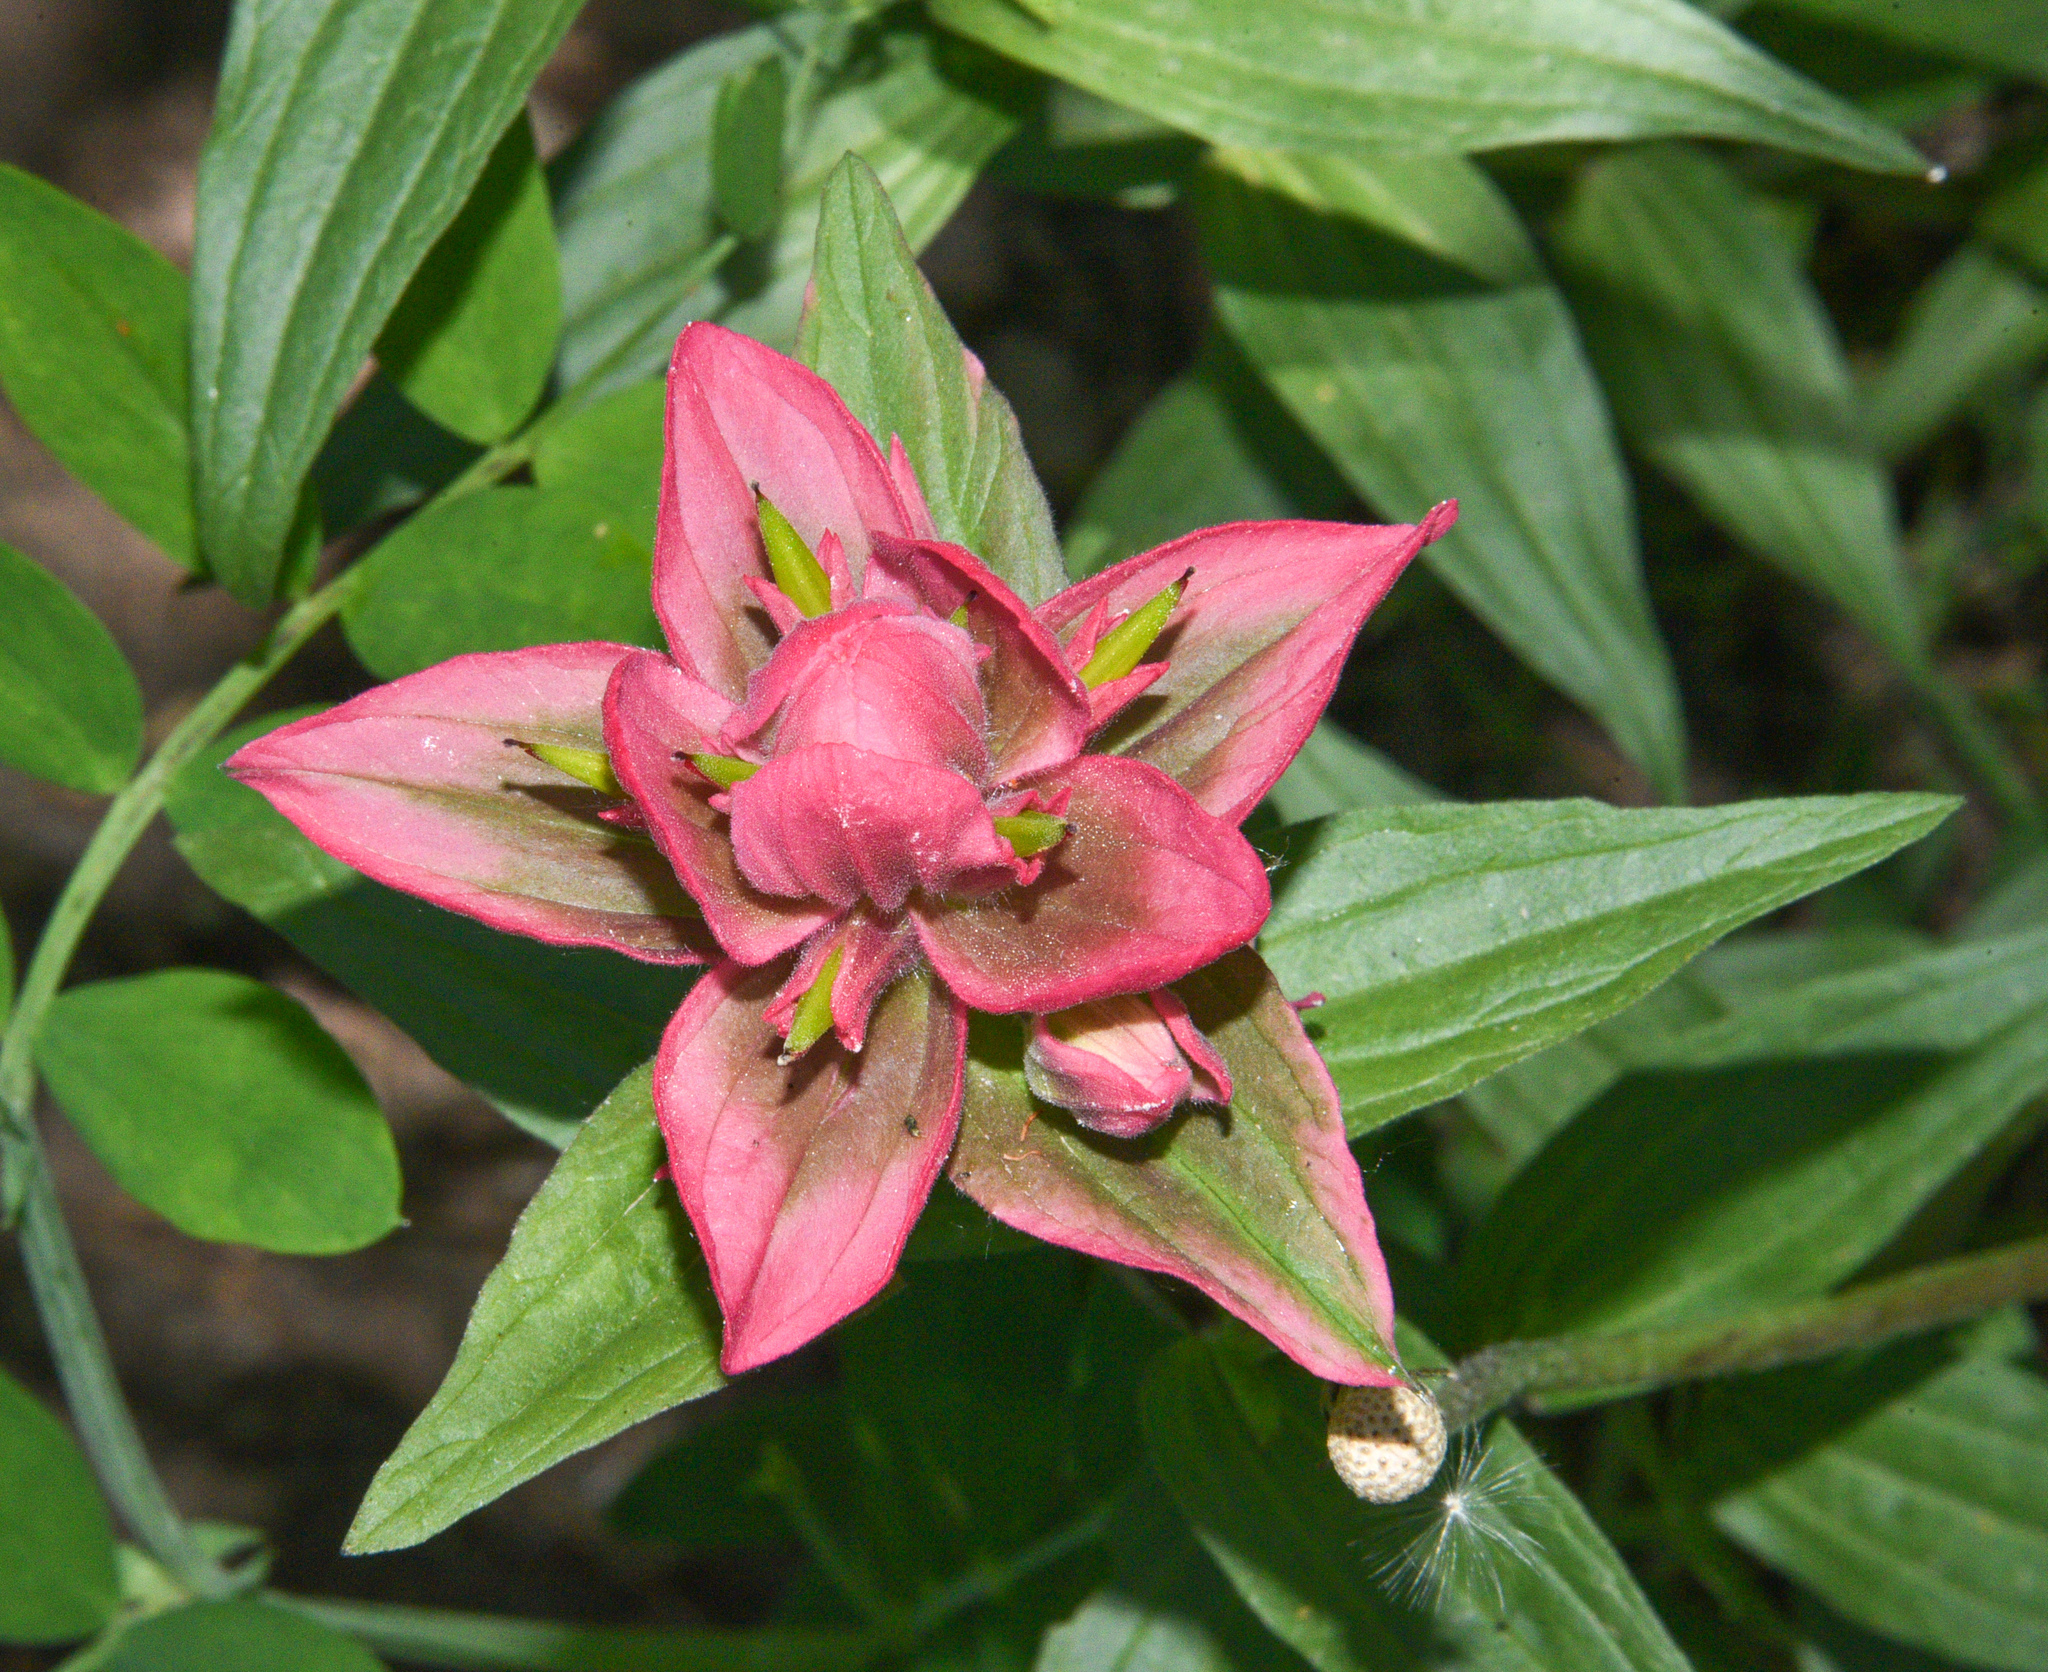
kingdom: Plantae
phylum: Tracheophyta
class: Magnoliopsida
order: Lamiales
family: Orobanchaceae
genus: Castilleja
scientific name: Castilleja miniata
